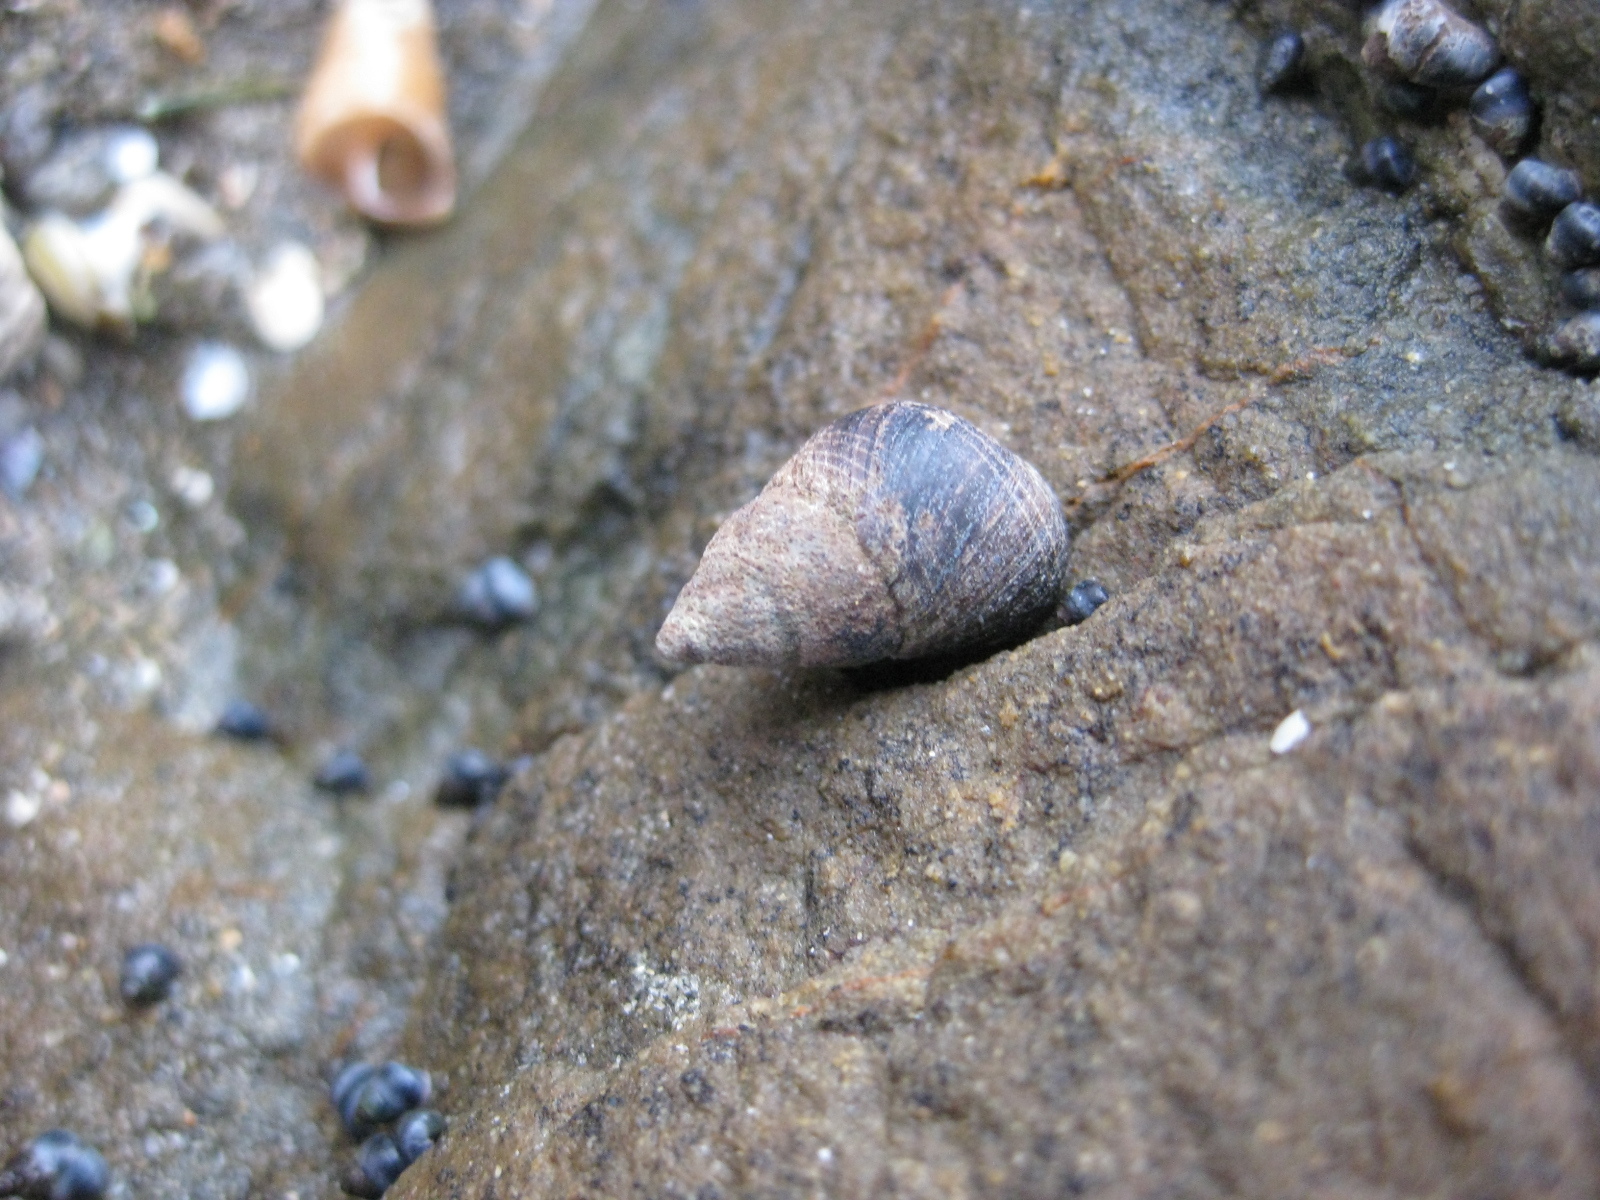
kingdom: Animalia
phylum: Mollusca
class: Gastropoda
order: Littorinimorpha
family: Littorinidae
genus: Austrolittorina
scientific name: Austrolittorina cincta
